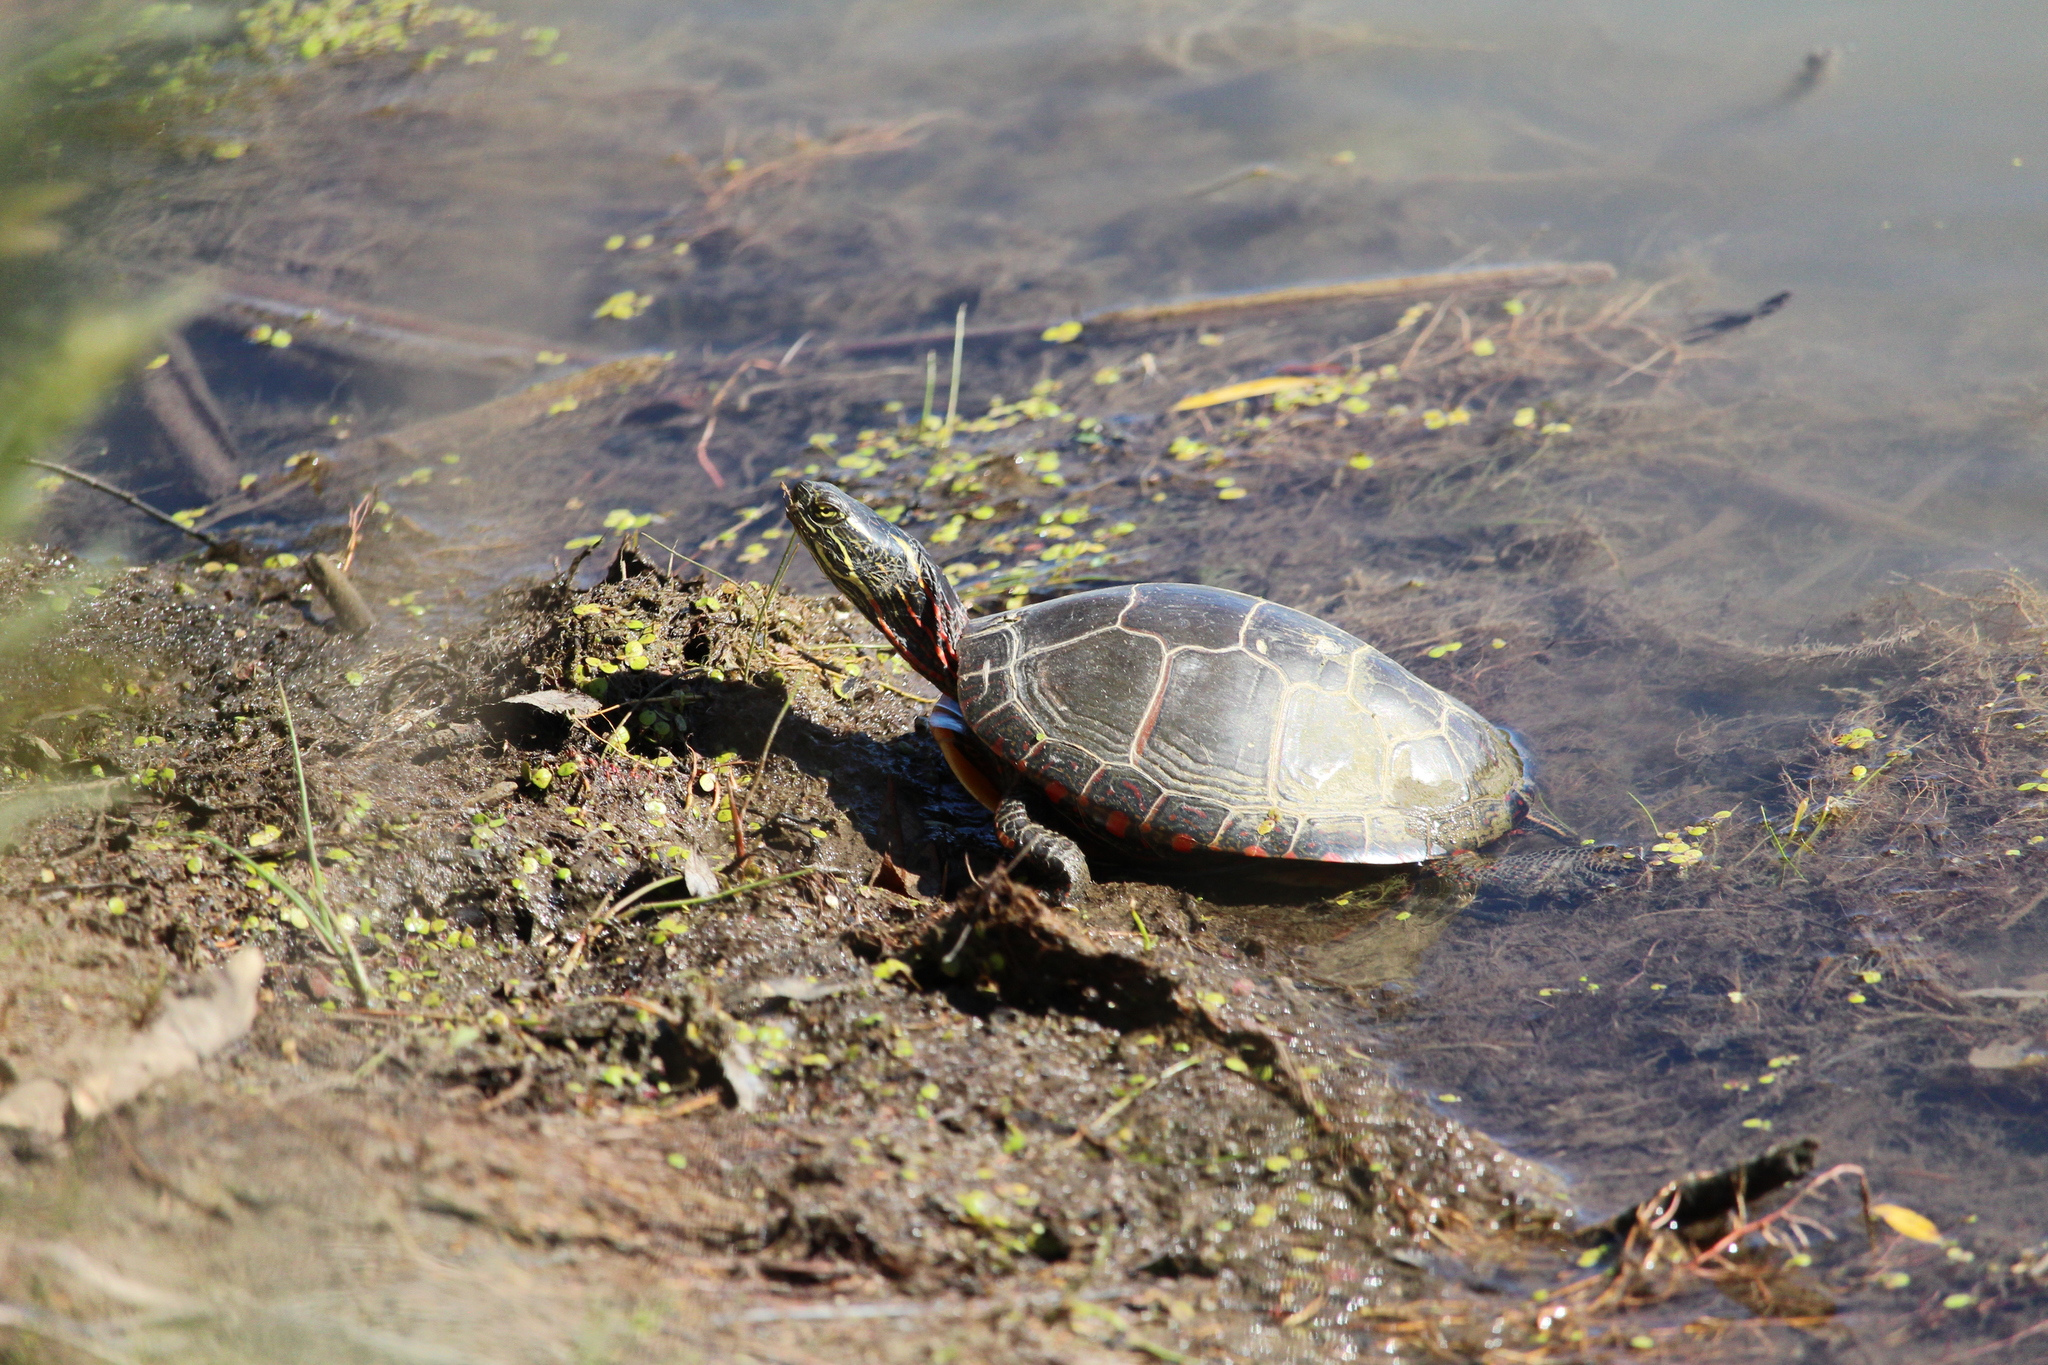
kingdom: Animalia
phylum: Chordata
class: Testudines
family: Emydidae
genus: Chrysemys
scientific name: Chrysemys picta
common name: Painted turtle
